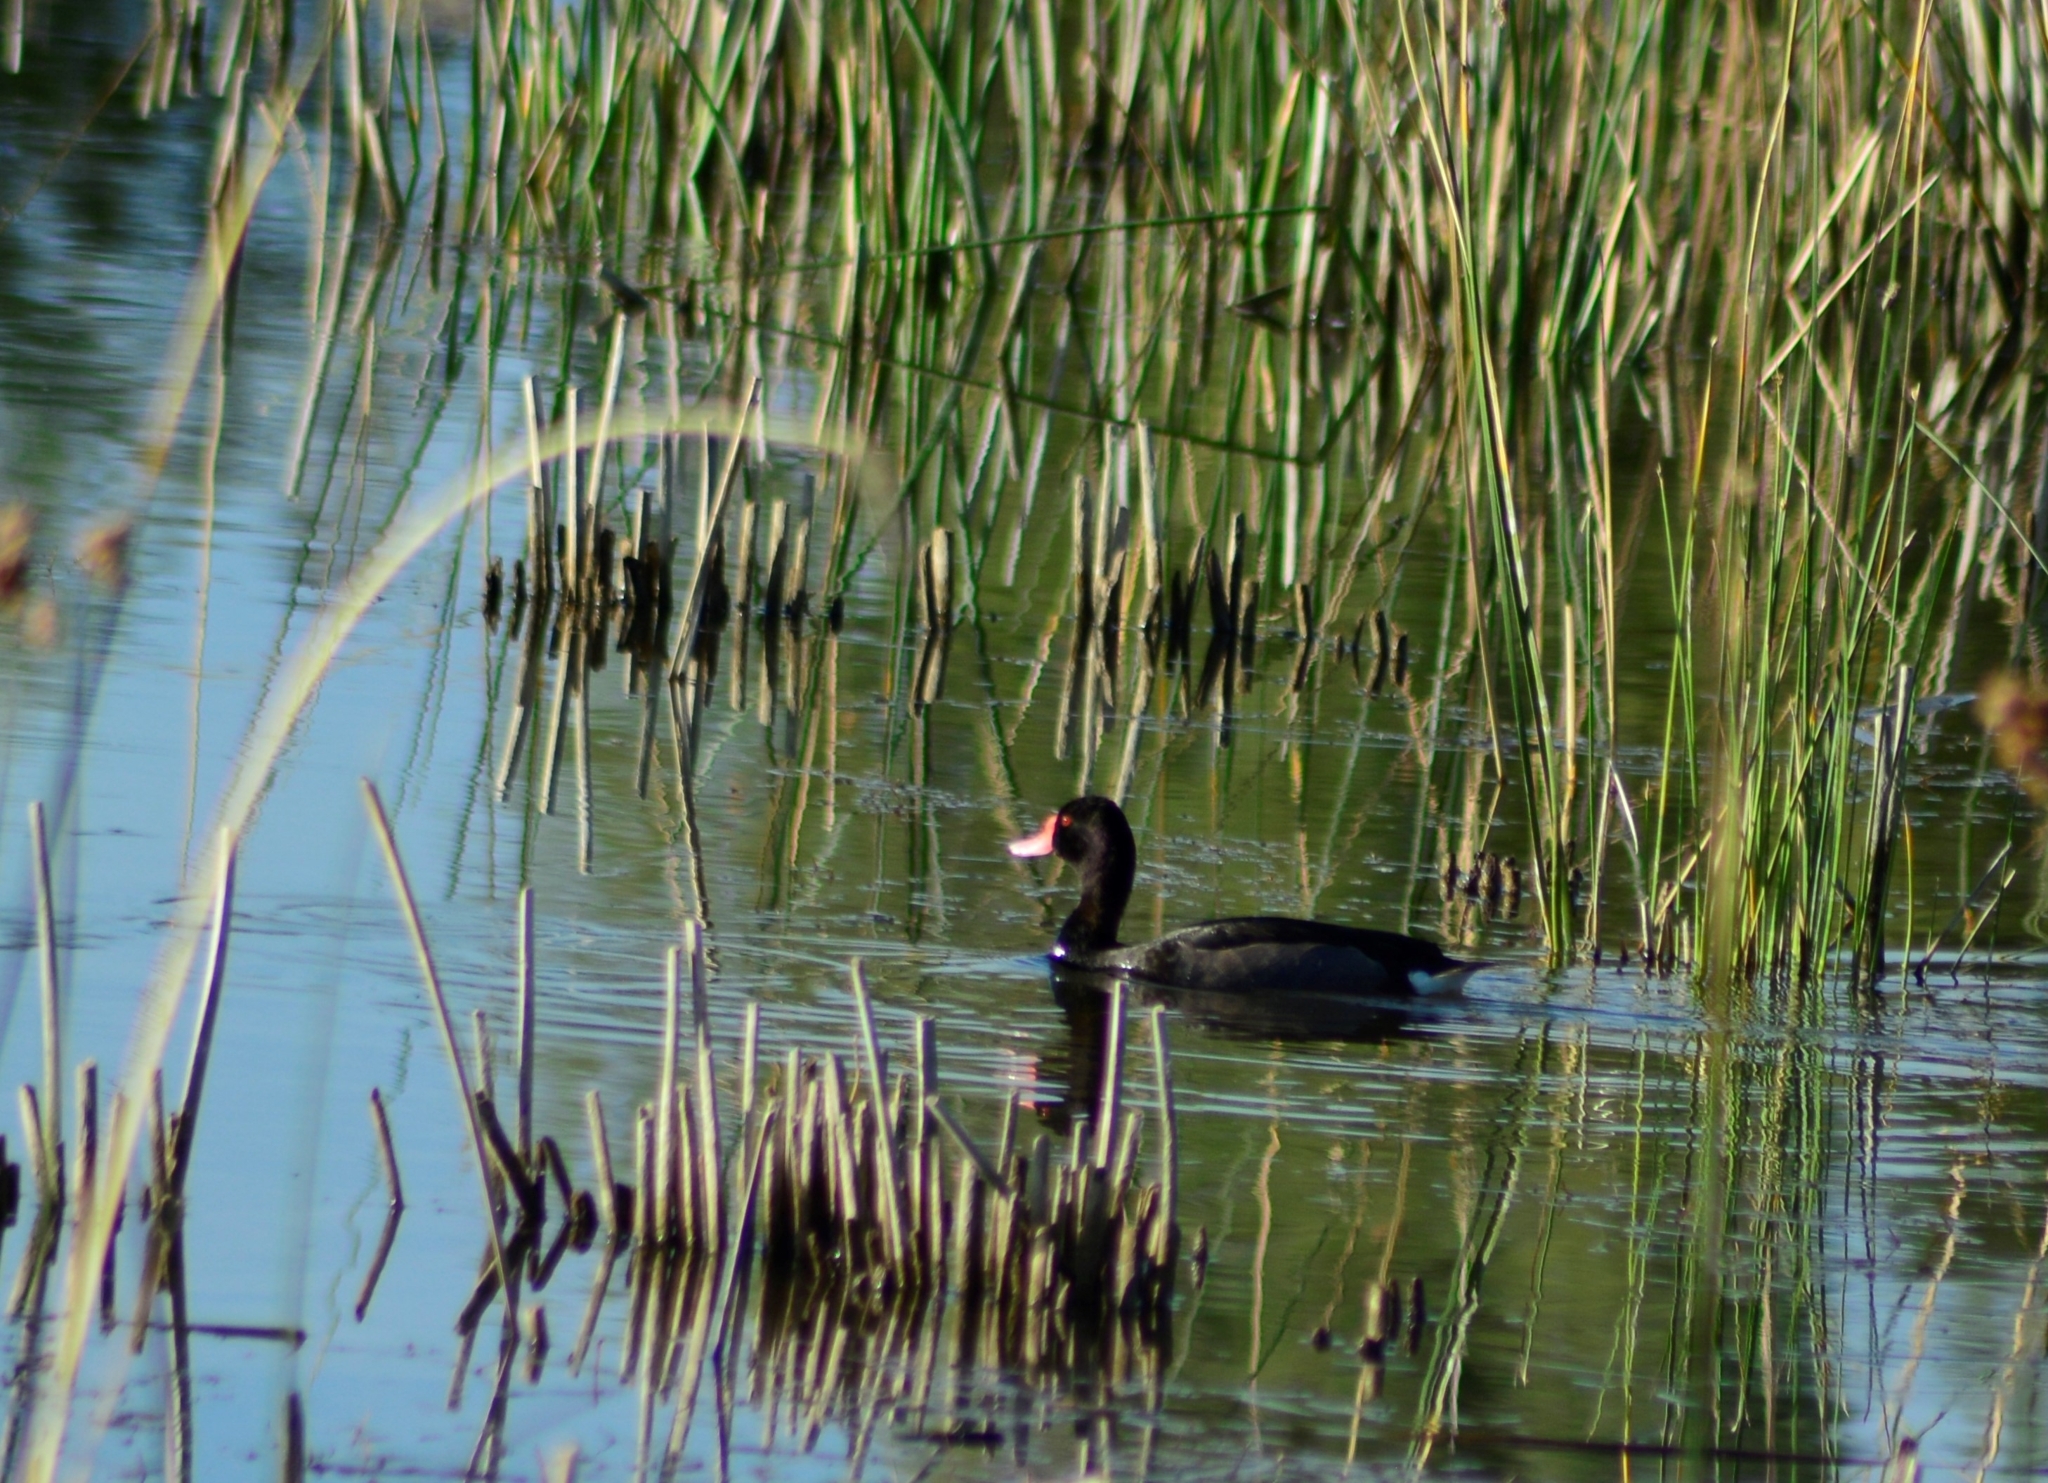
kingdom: Animalia
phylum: Chordata
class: Aves
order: Anseriformes
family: Anatidae
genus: Netta
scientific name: Netta peposaca
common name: Rosy-billed pochard
